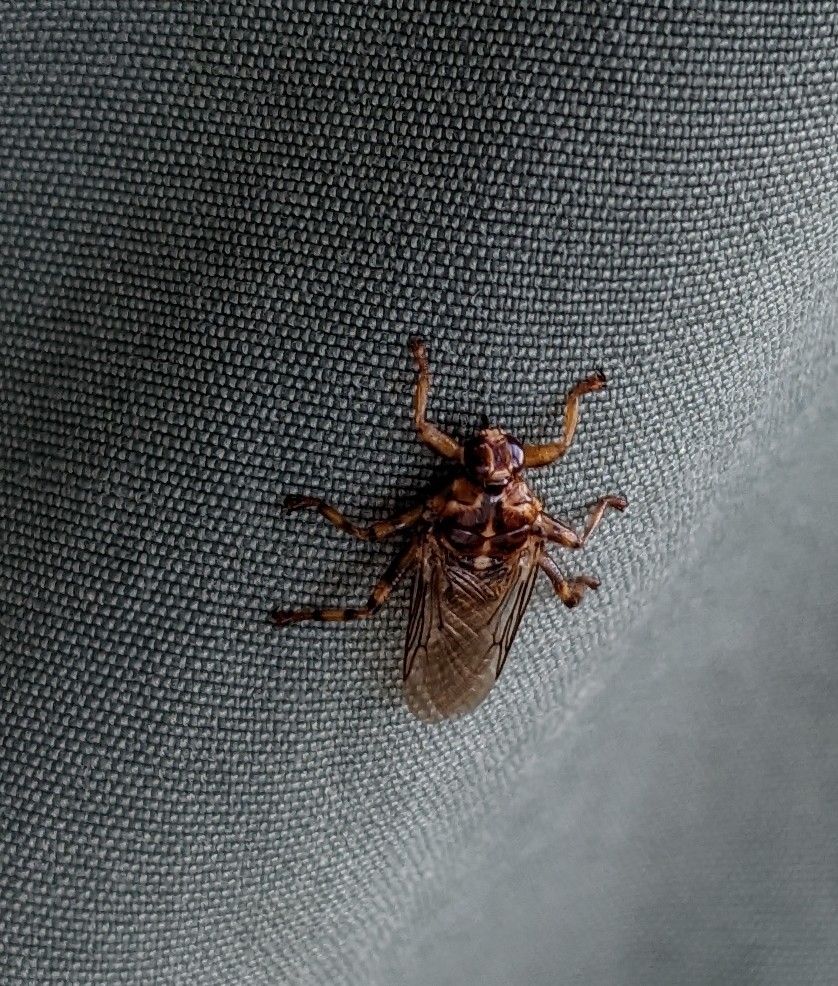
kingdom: Animalia
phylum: Arthropoda
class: Insecta
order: Diptera
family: Hippoboscidae
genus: Hippobosca
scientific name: Hippobosca equina
